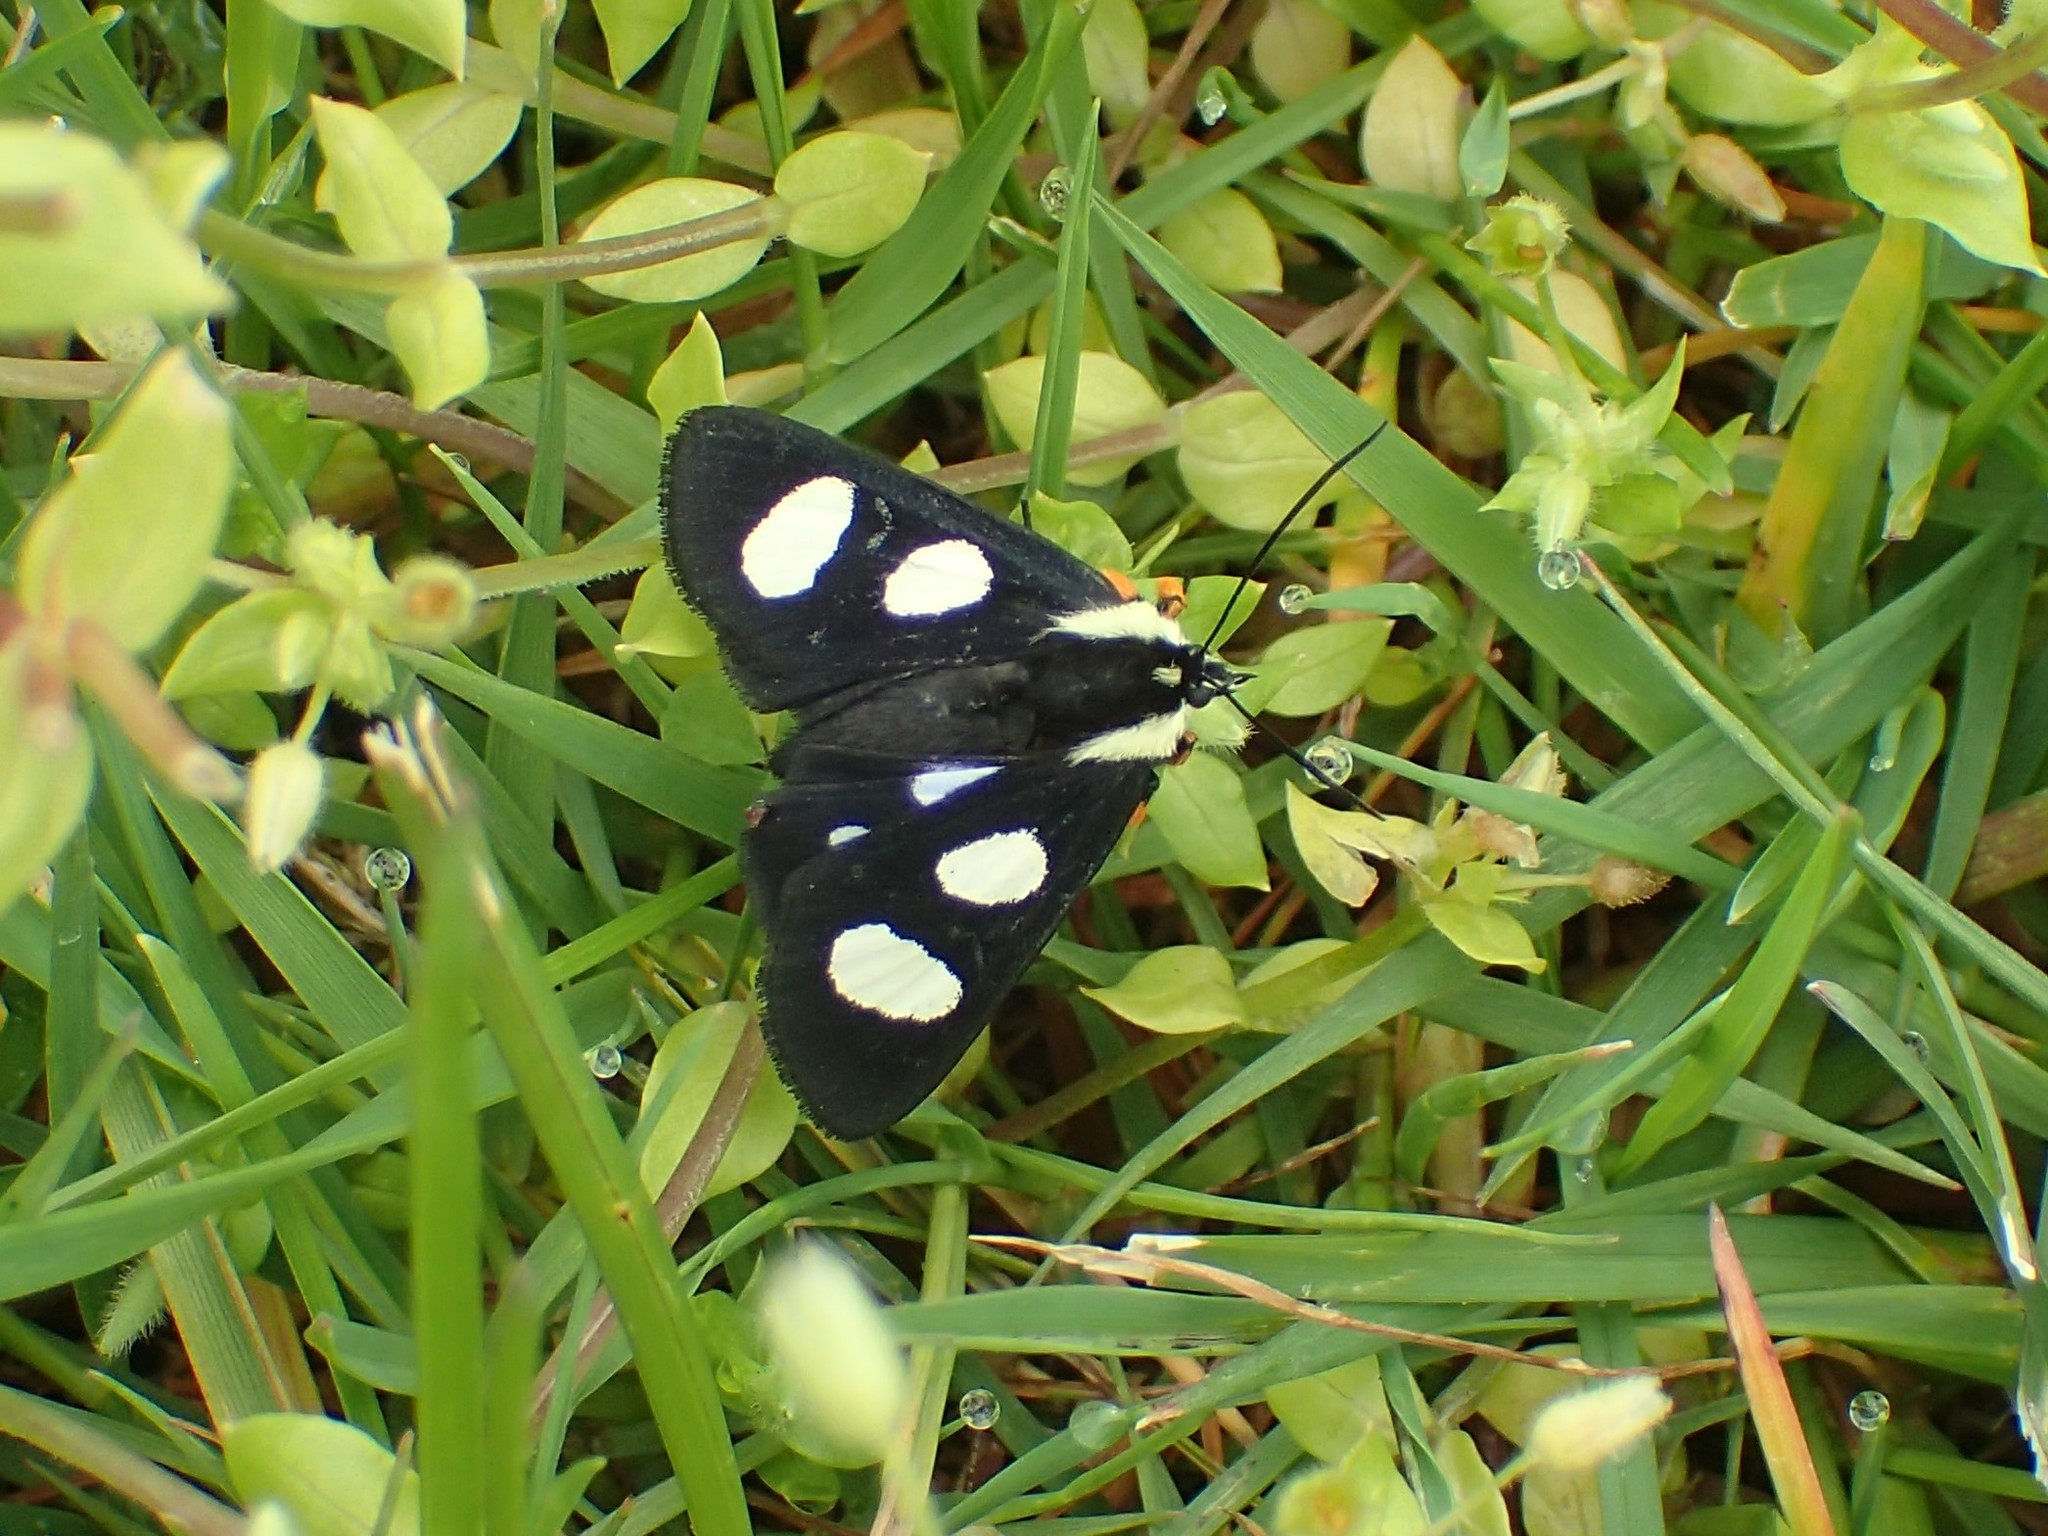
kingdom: Animalia
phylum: Arthropoda
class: Insecta
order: Lepidoptera
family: Noctuidae
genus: Alypia
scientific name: Alypia octomaculata
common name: Eight-spotted forester
